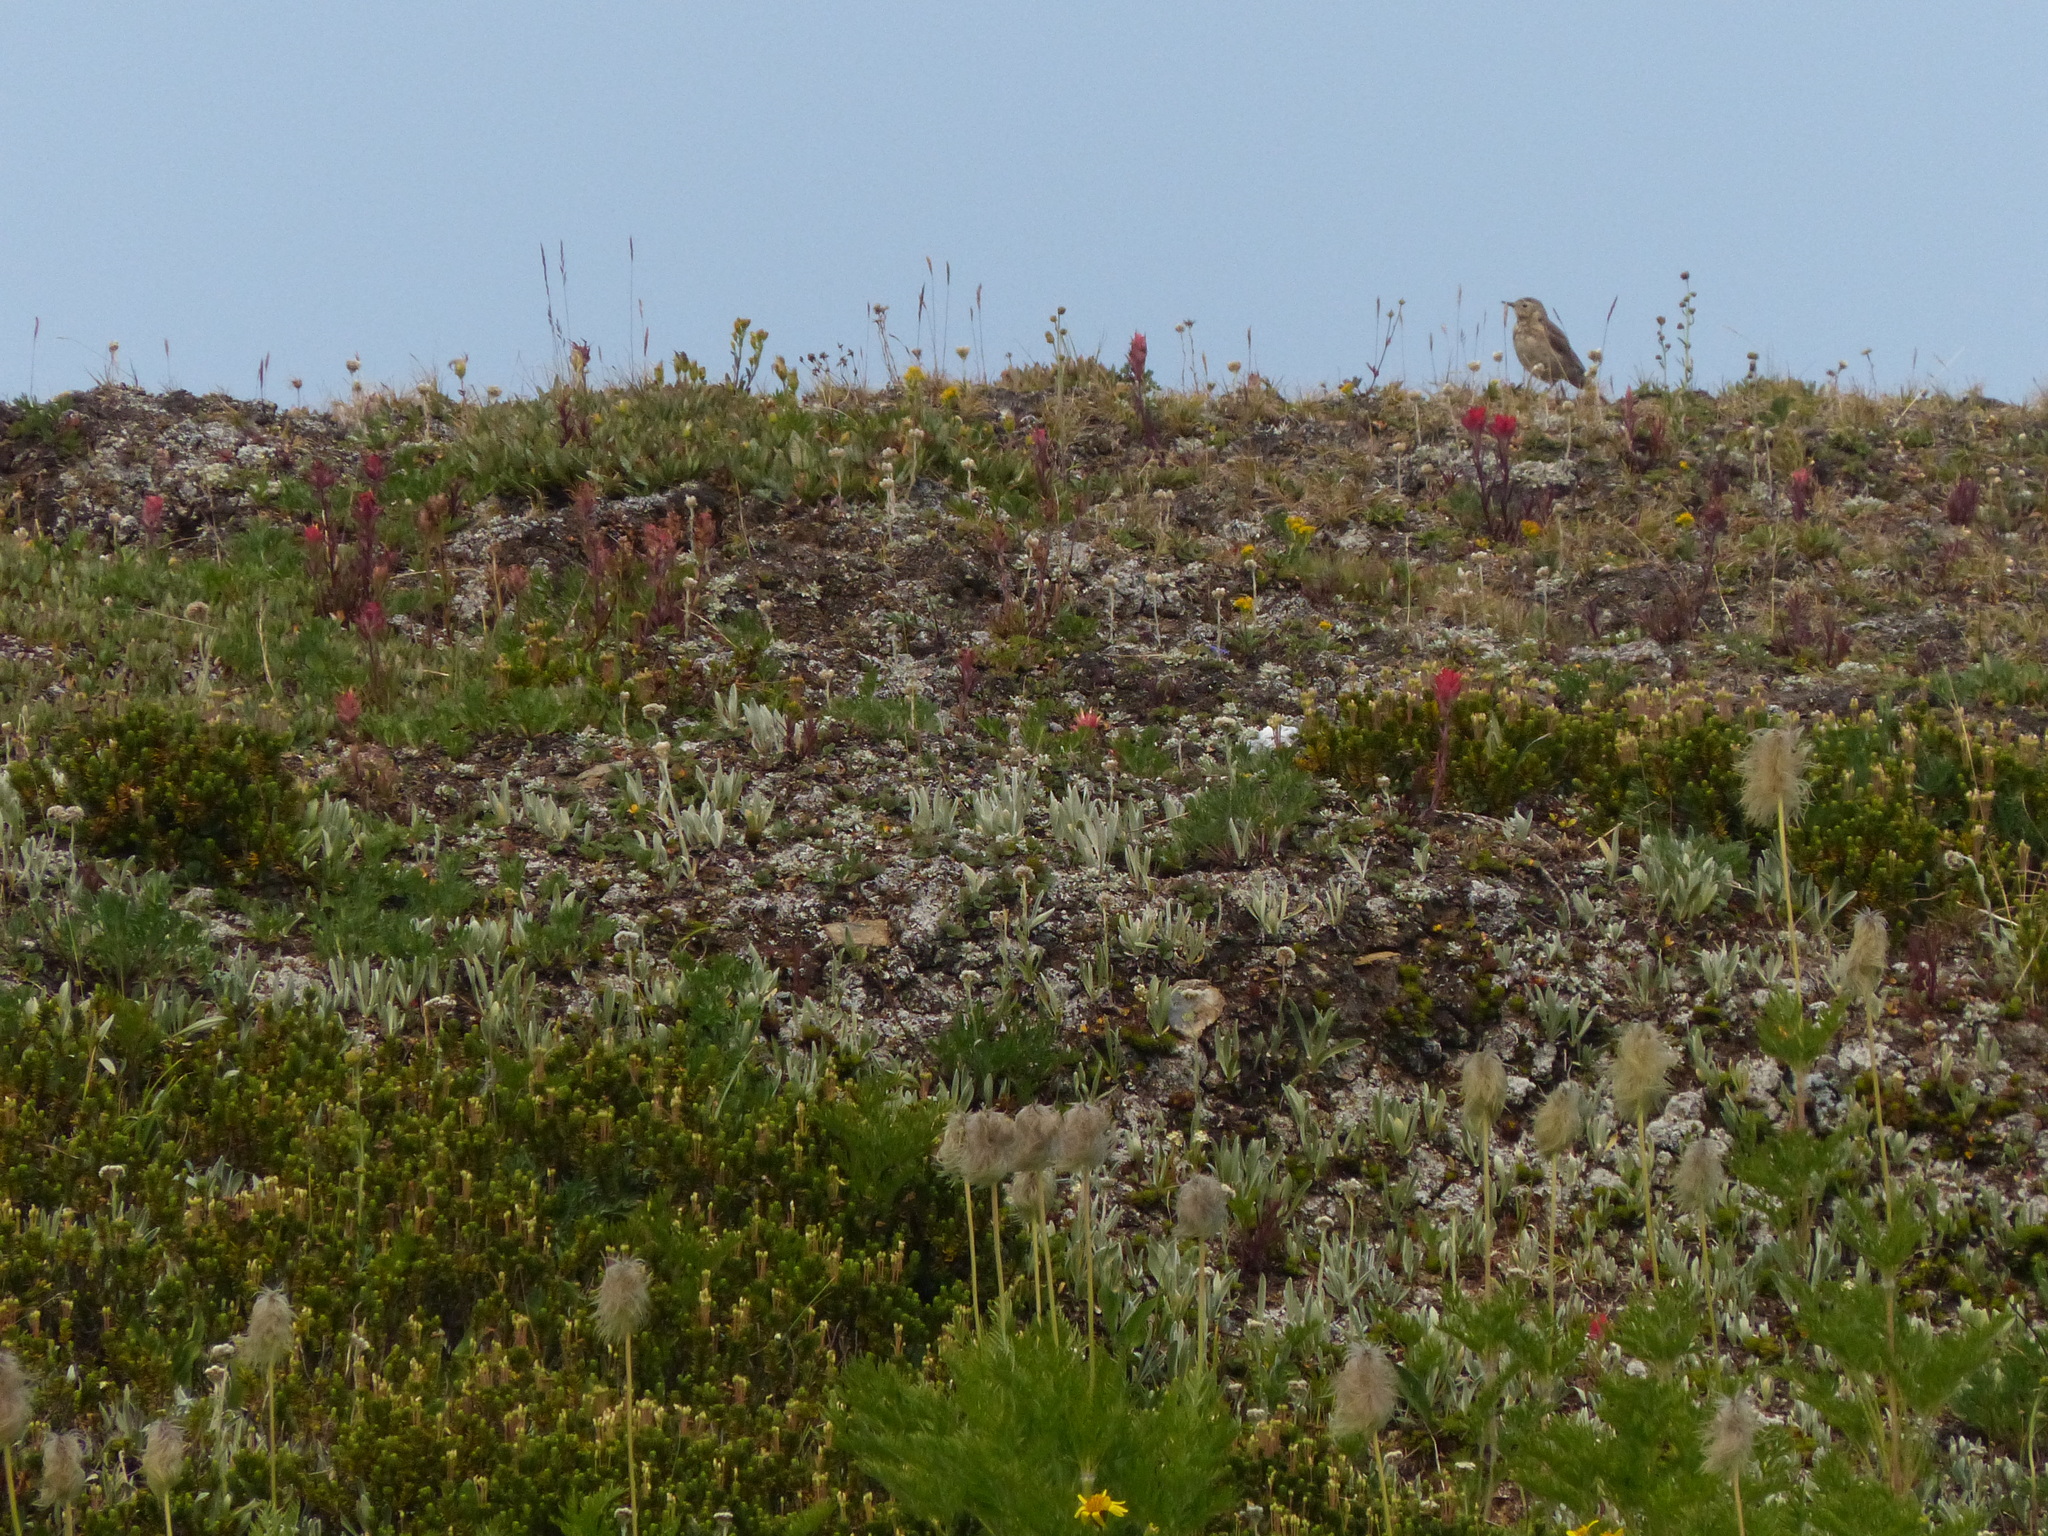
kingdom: Animalia
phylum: Chordata
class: Aves
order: Passeriformes
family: Motacillidae
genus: Anthus
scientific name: Anthus rubescens
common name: Buff-bellied pipit
